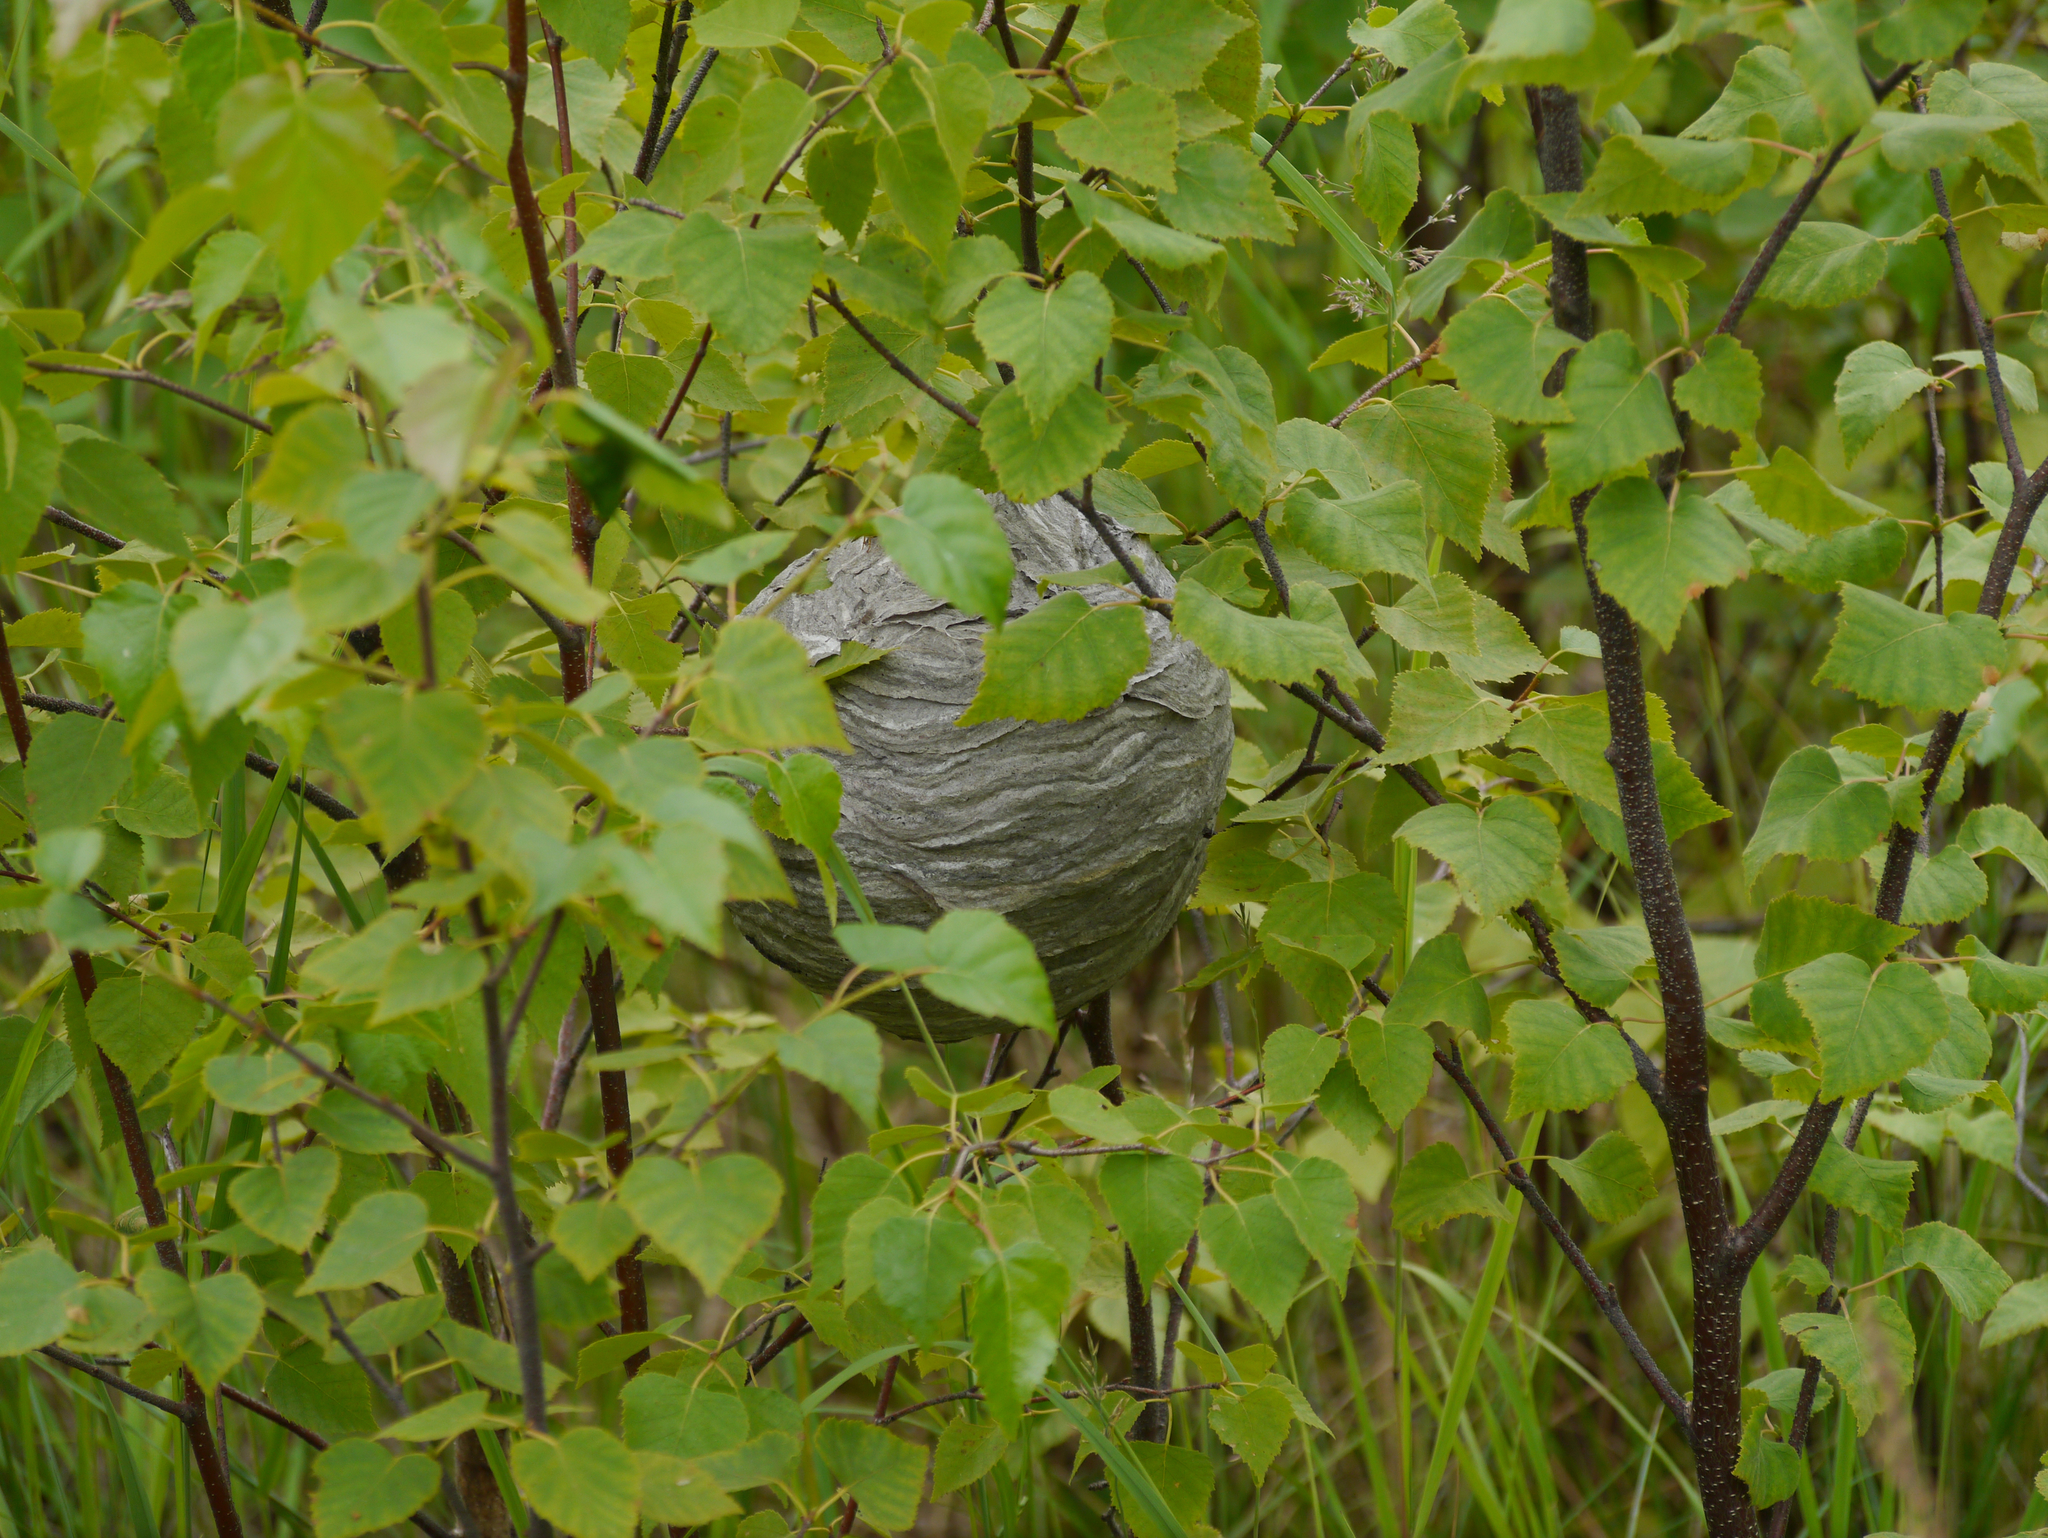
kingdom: Animalia
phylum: Arthropoda
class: Insecta
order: Hymenoptera
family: Vespidae
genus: Dolichovespula
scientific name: Dolichovespula arenaria
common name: Aerial yellowjacket
